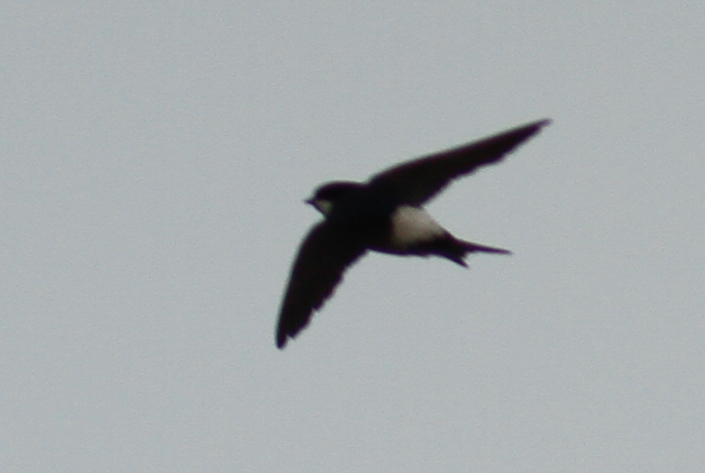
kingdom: Animalia
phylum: Chordata
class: Aves
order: Passeriformes
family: Hirundinidae
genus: Delichon
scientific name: Delichon urbicum
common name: Common house martin
